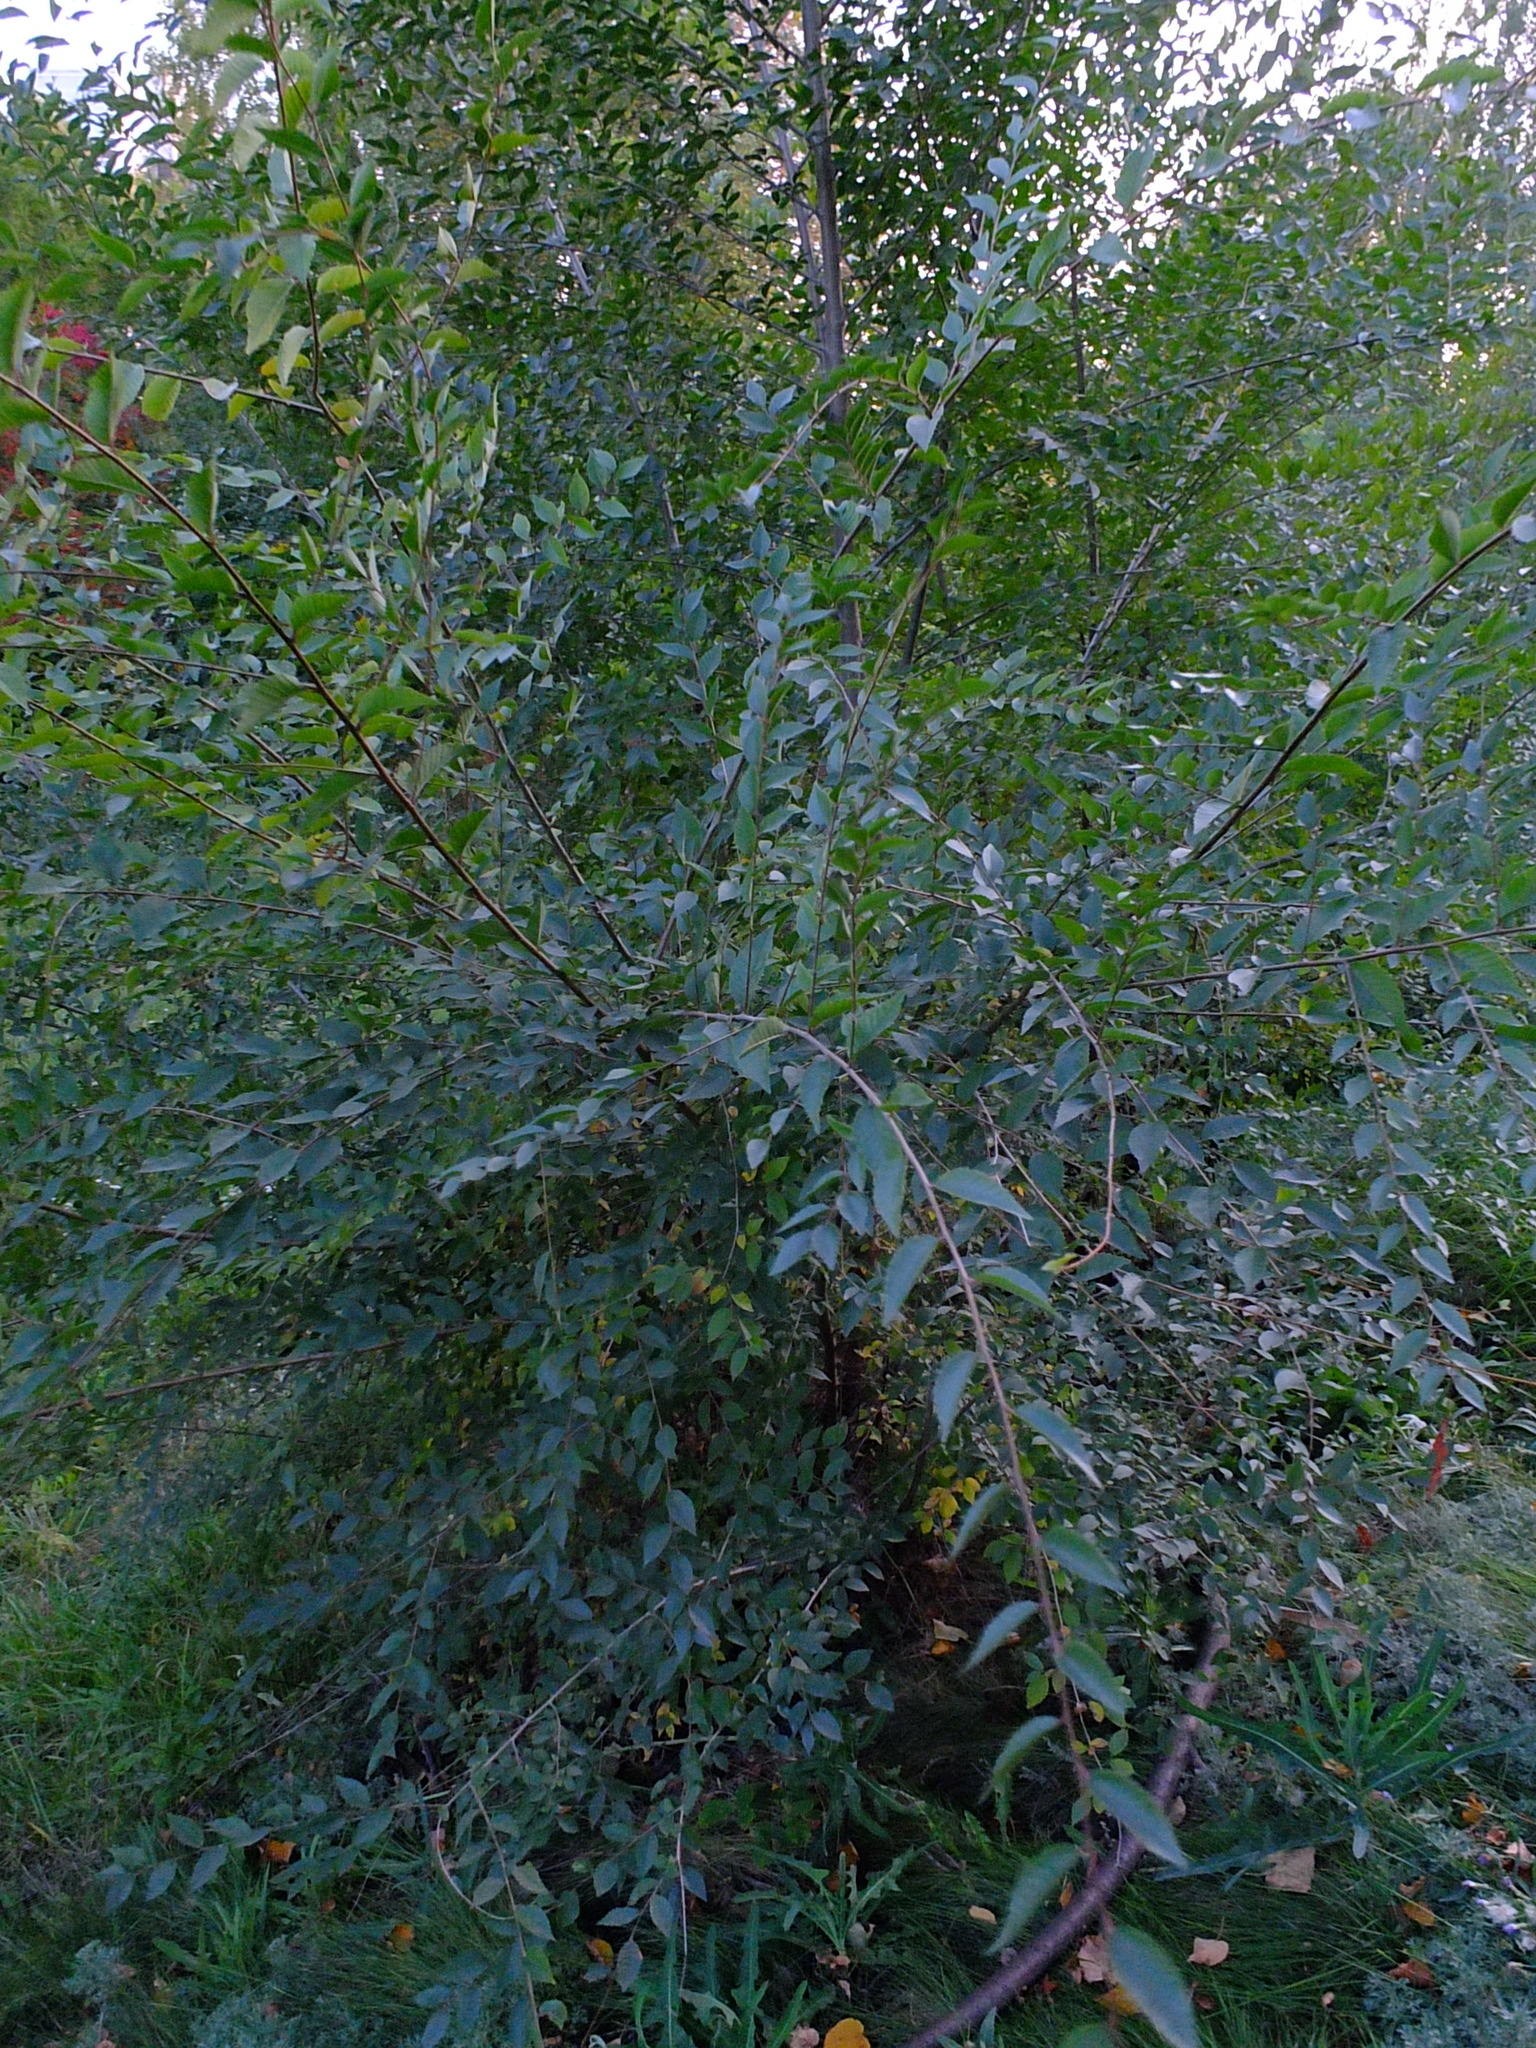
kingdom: Plantae
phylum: Tracheophyta
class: Magnoliopsida
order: Rosales
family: Ulmaceae
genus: Ulmus
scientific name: Ulmus pumila
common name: Siberian elm
